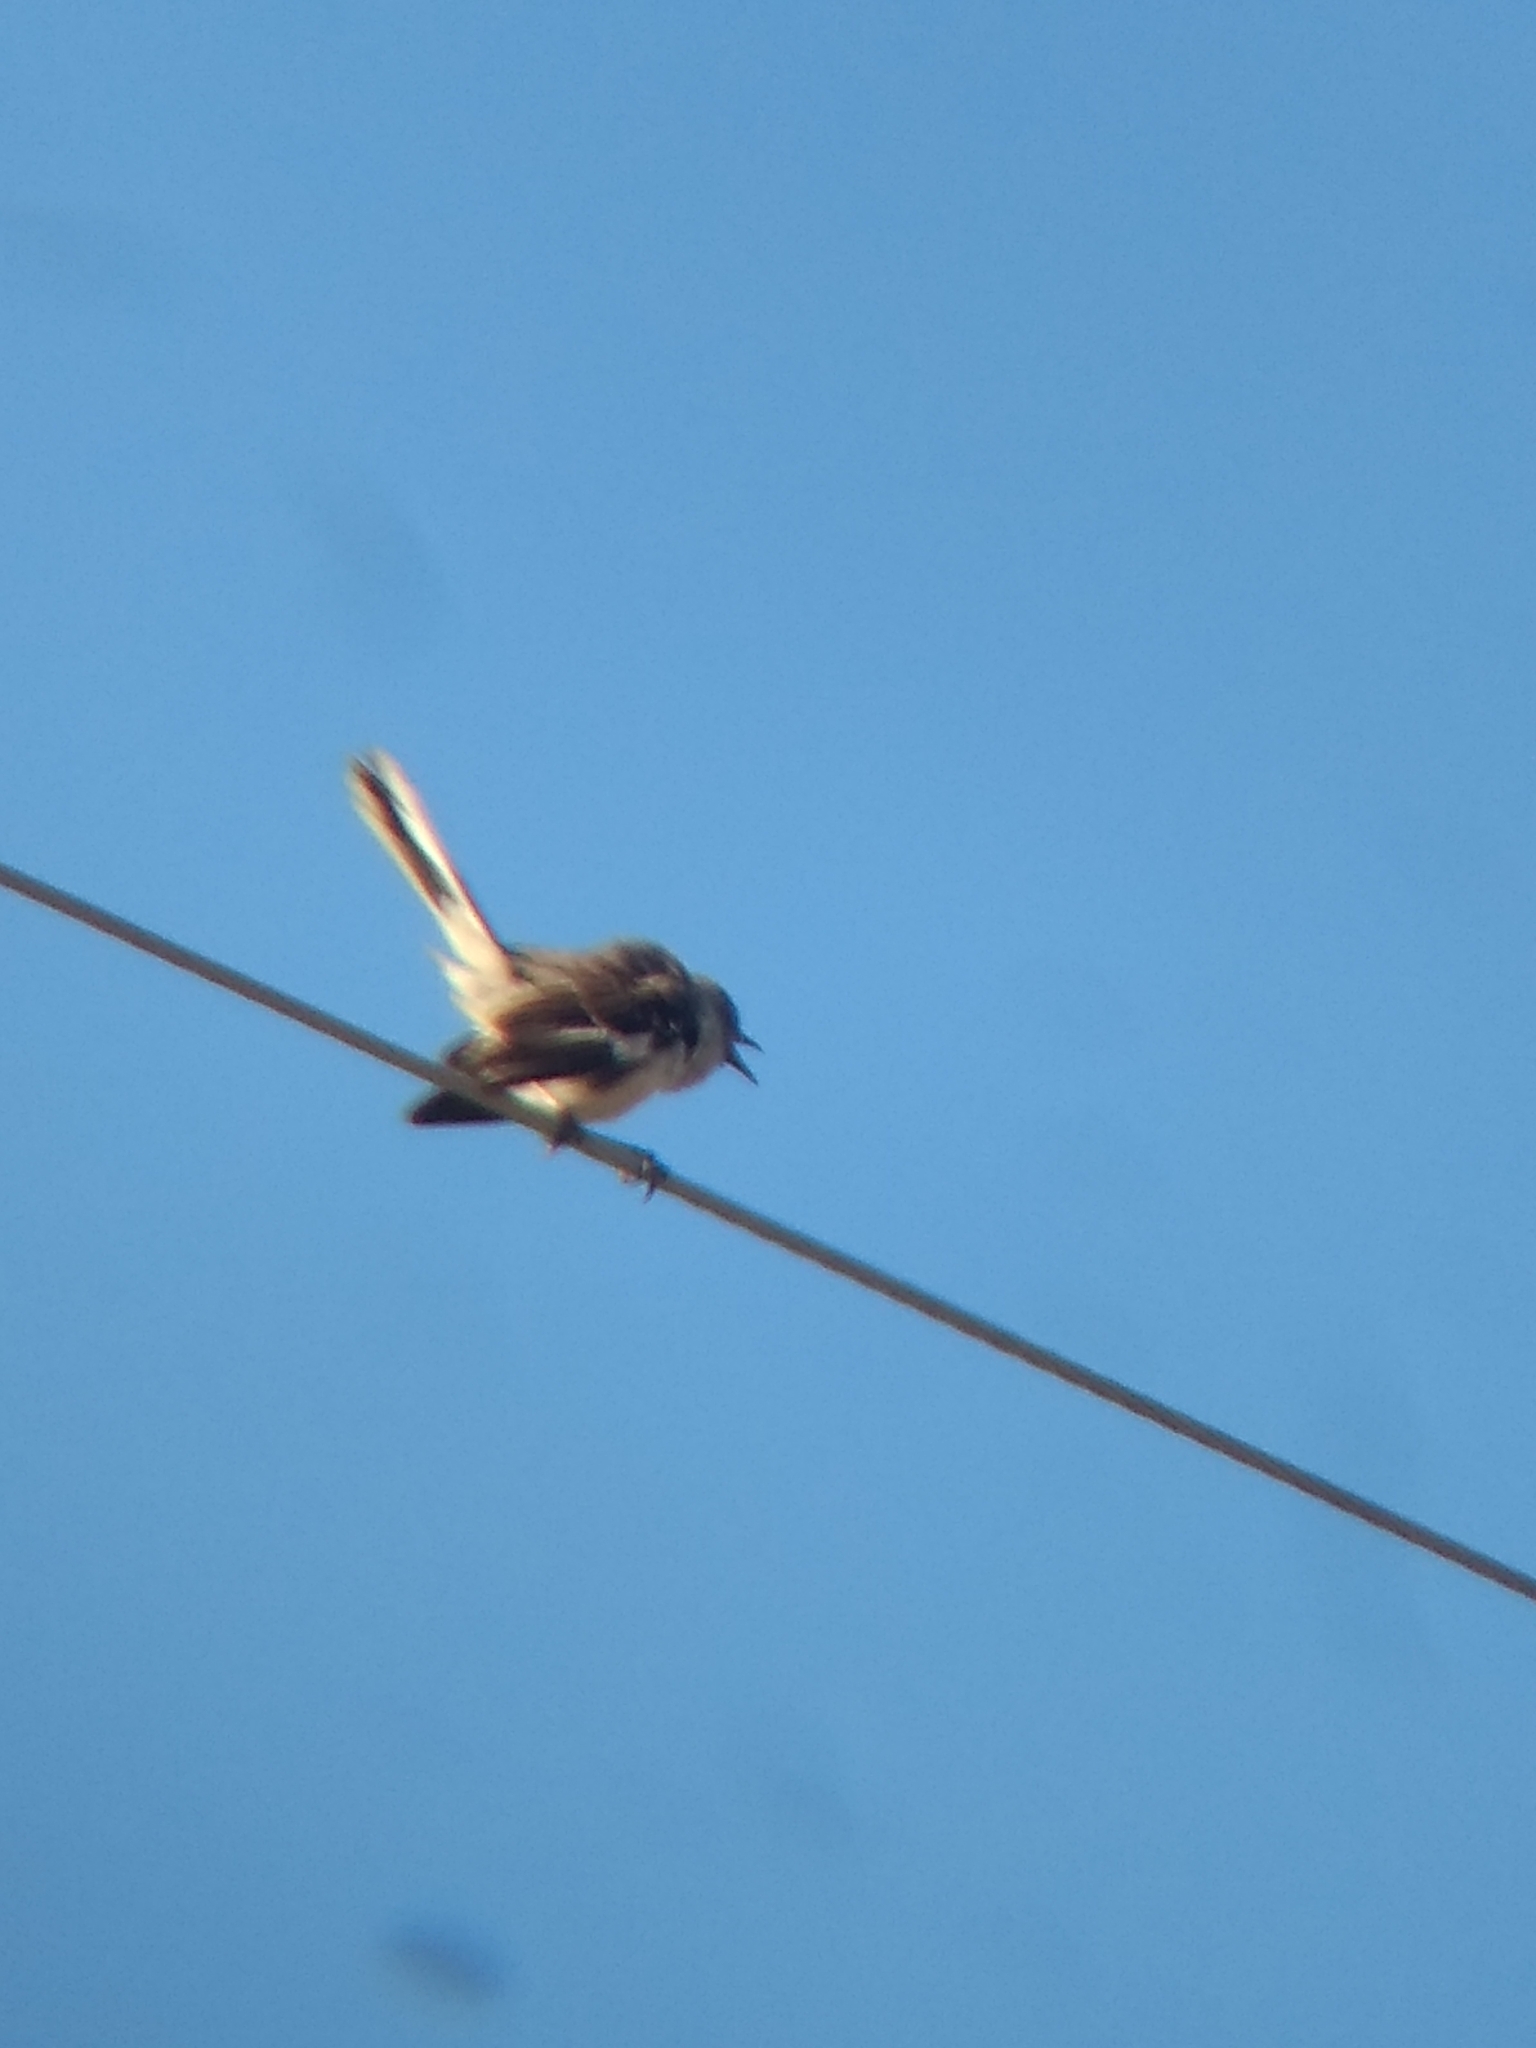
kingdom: Animalia
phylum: Chordata
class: Aves
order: Passeriformes
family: Mimidae
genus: Mimus
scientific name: Mimus polyglottos
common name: Northern mockingbird
